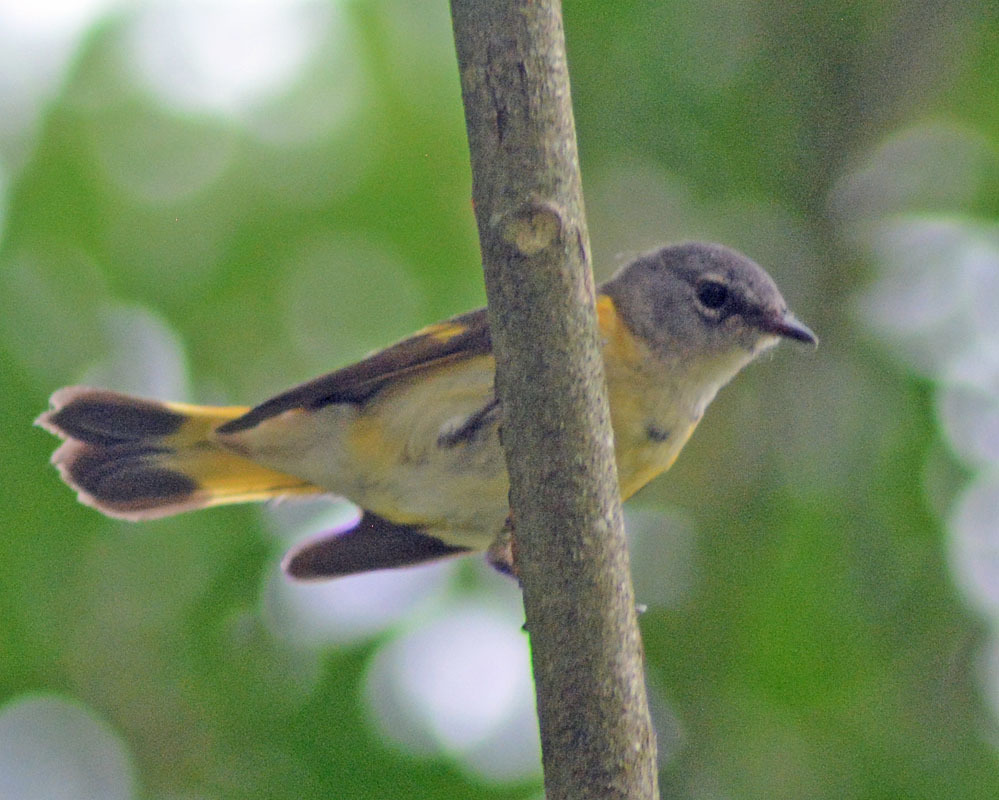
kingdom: Animalia
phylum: Chordata
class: Aves
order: Passeriformes
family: Parulidae
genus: Setophaga
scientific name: Setophaga ruticilla
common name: American redstart
